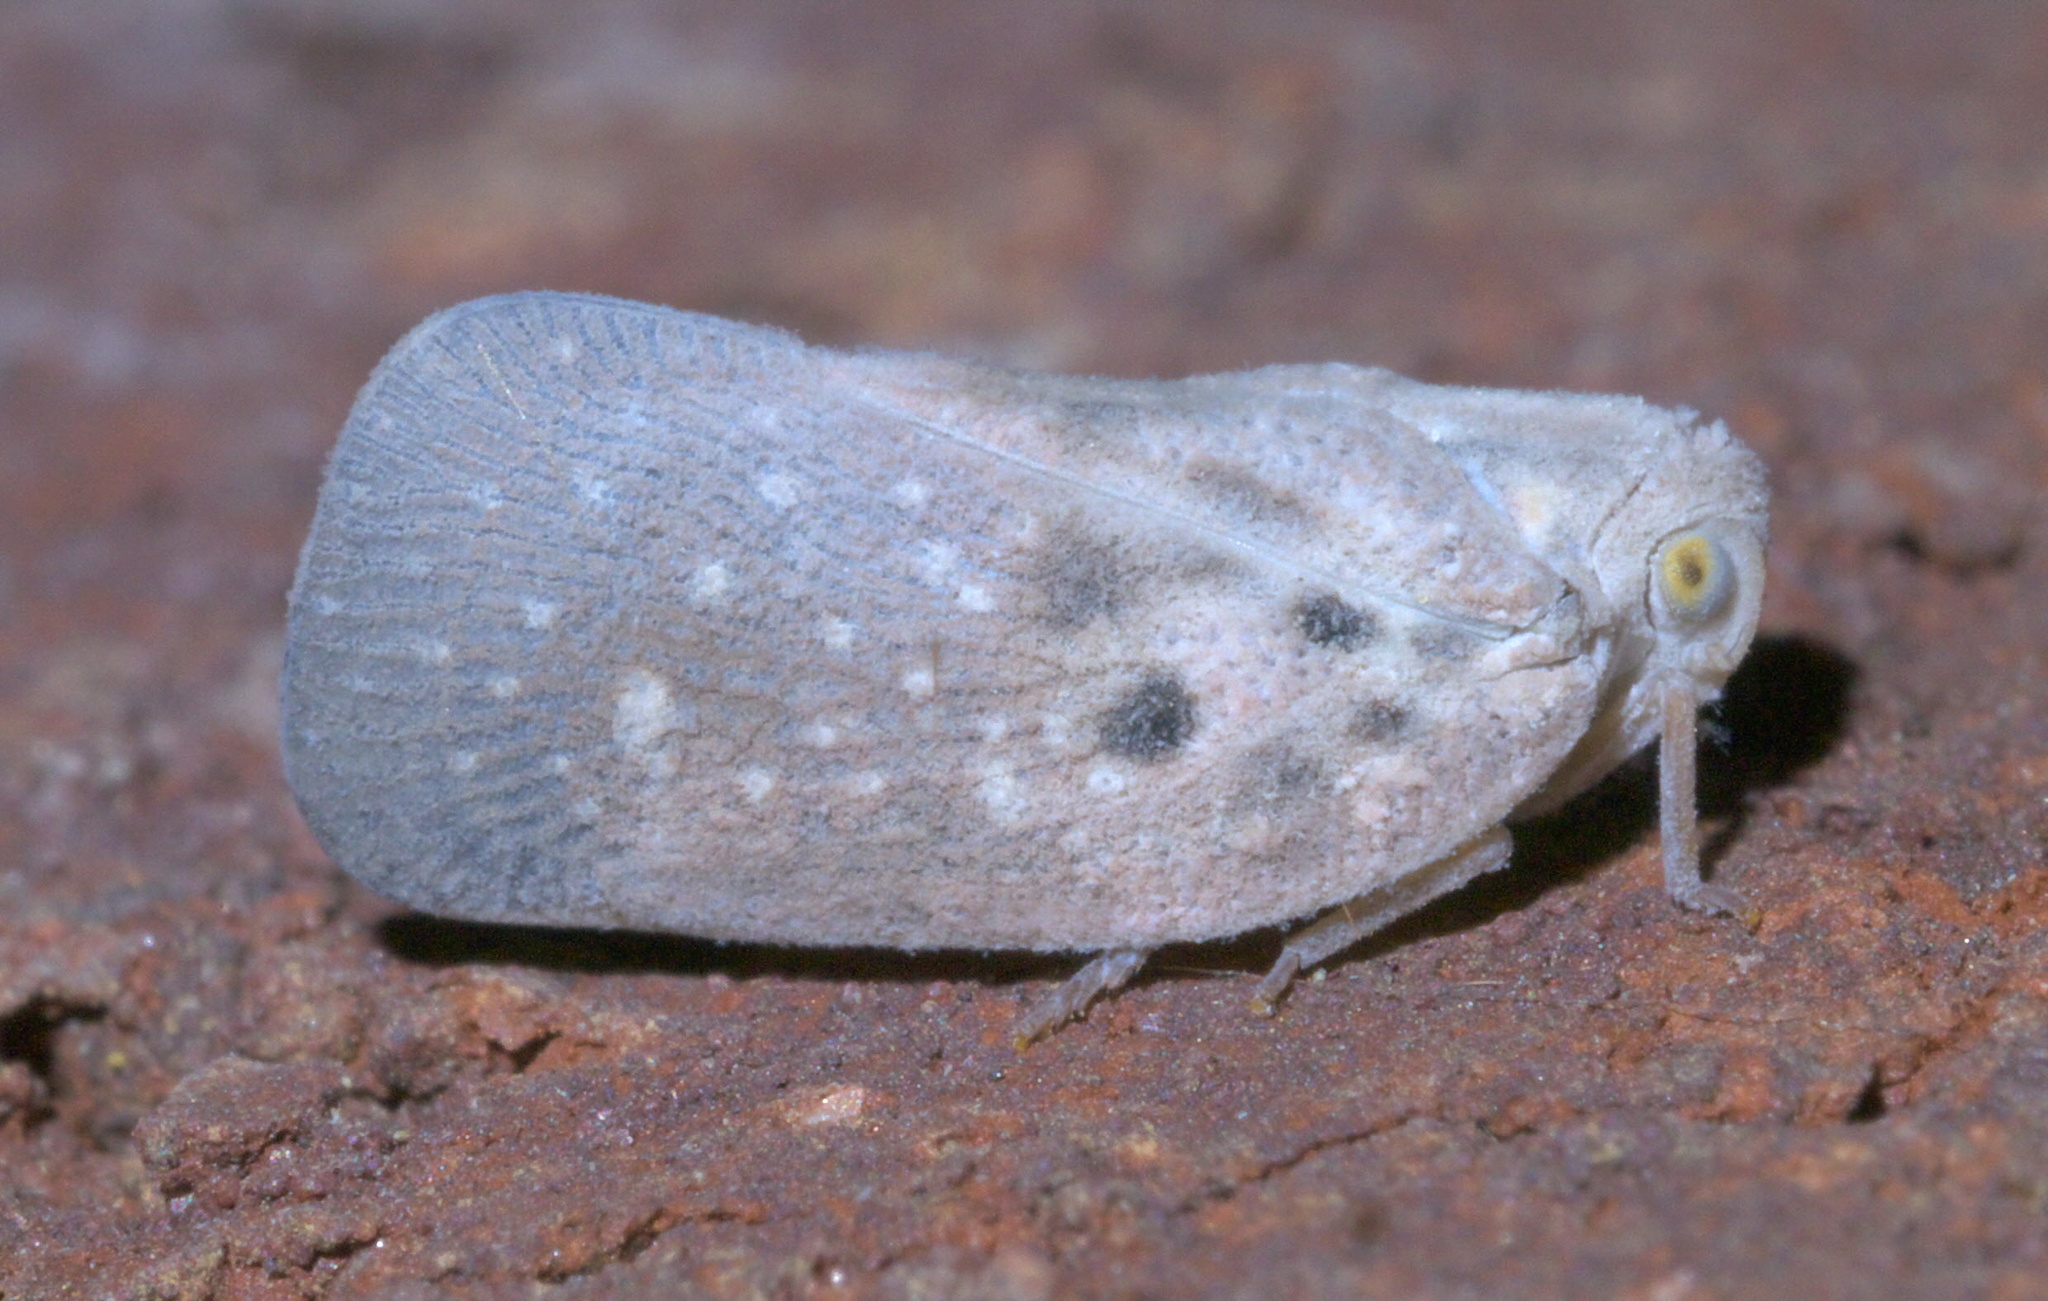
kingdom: Animalia
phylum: Arthropoda
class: Insecta
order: Hemiptera
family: Flatidae
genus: Metcalfa
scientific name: Metcalfa pruinosa
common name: Citrus flatid planthopper
